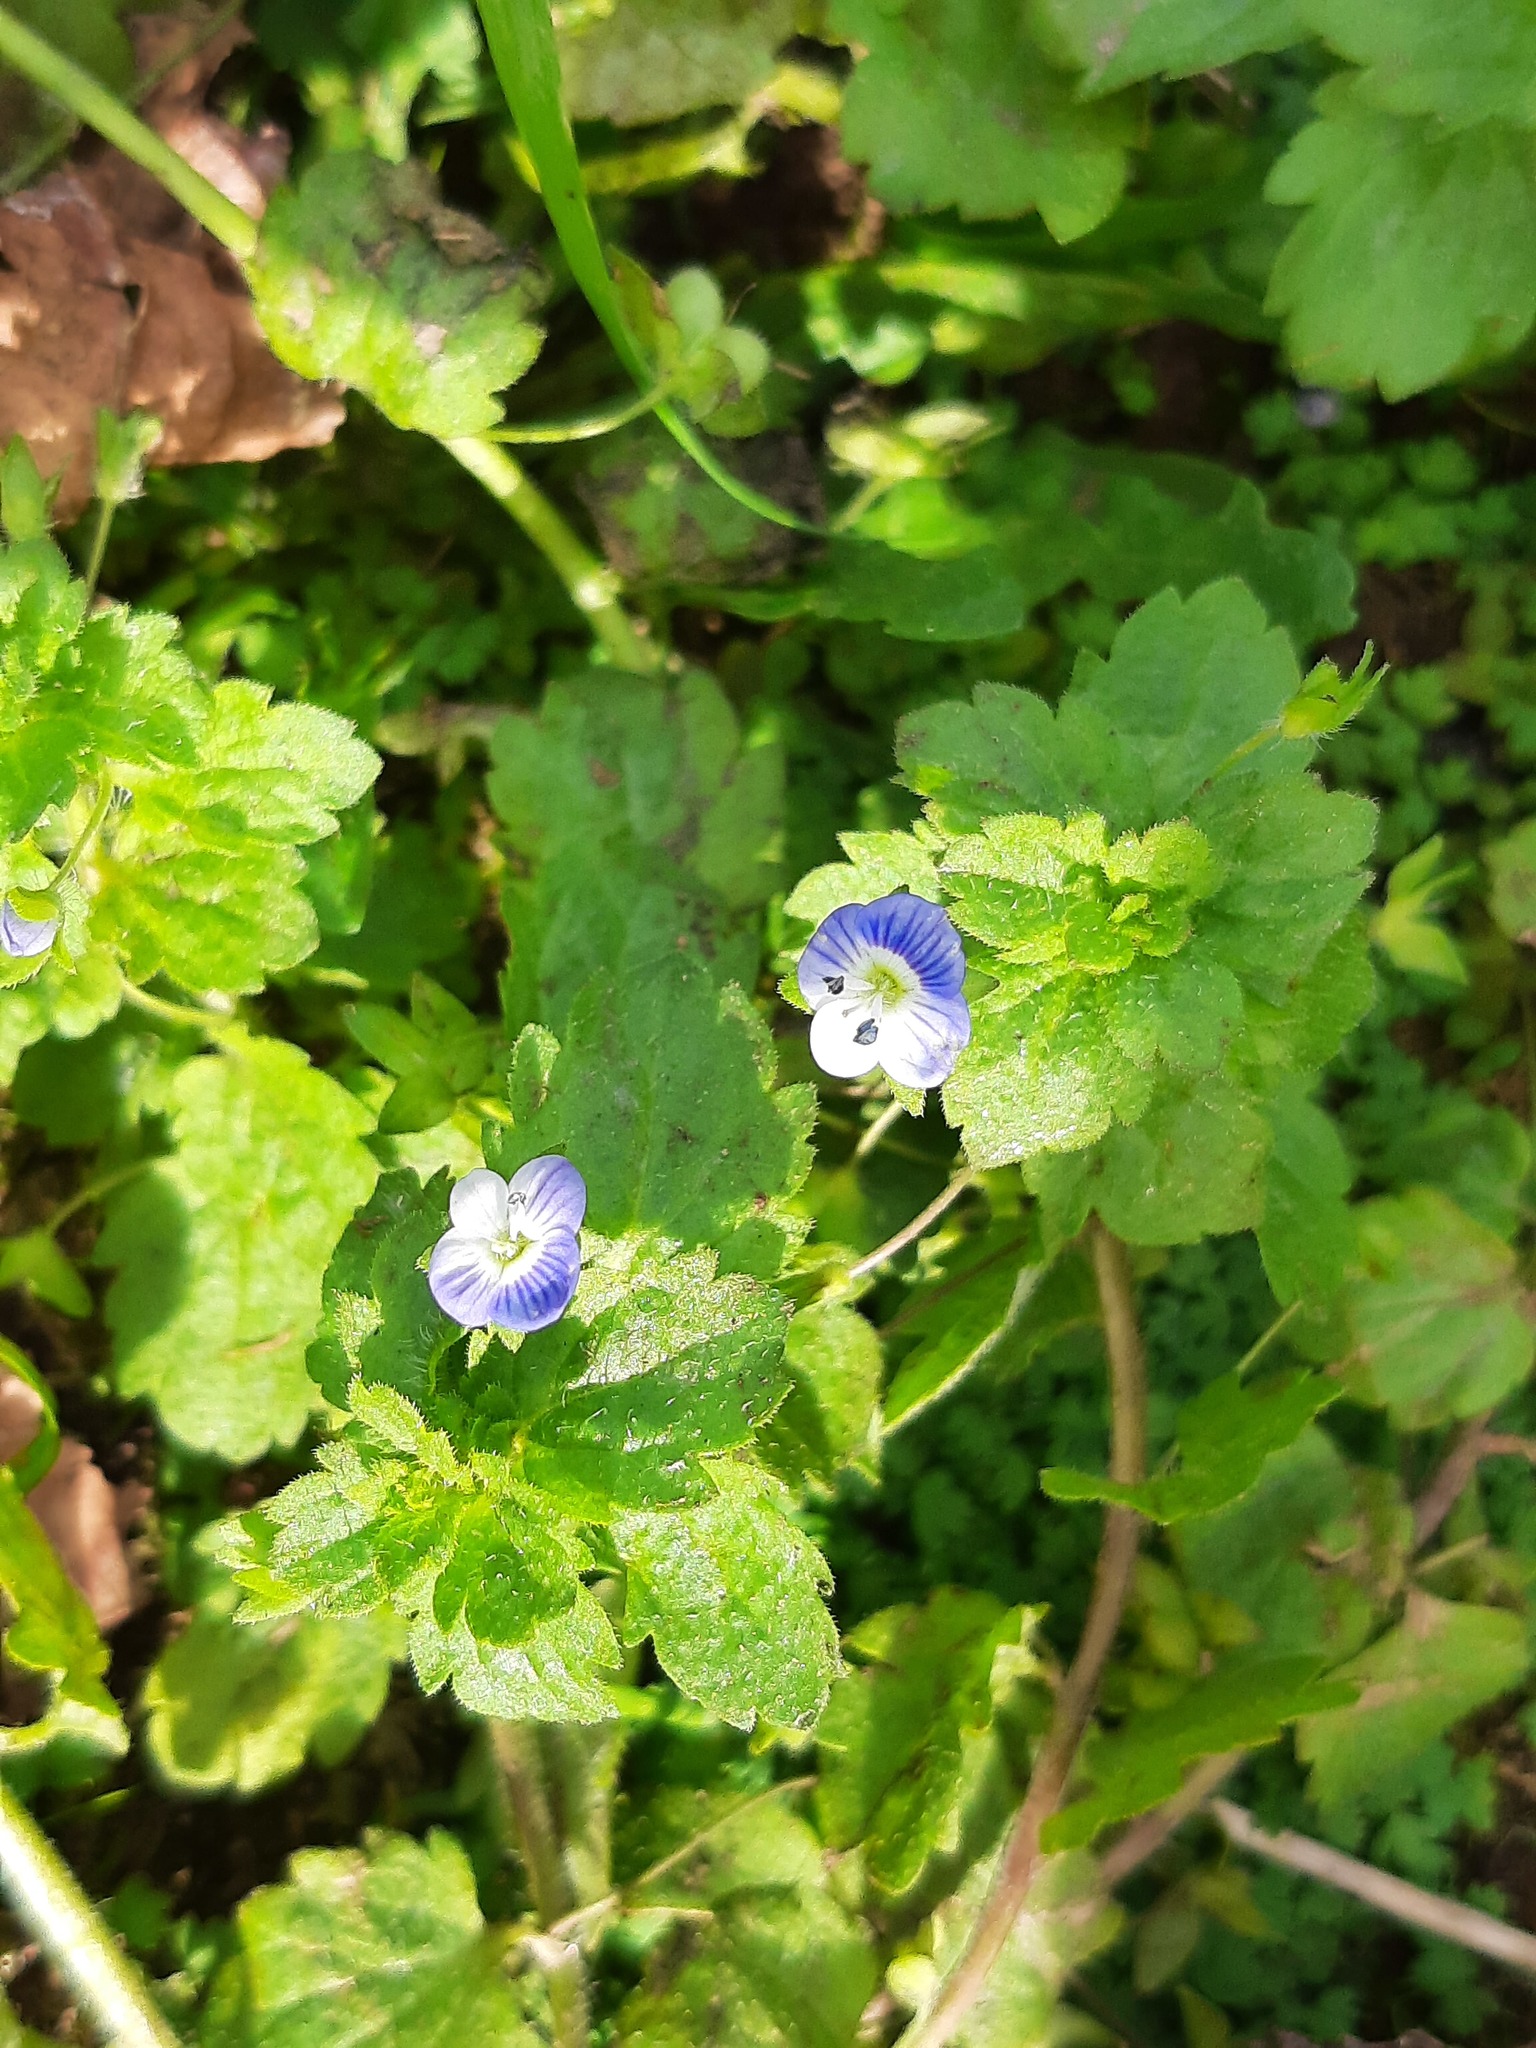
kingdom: Plantae
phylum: Tracheophyta
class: Magnoliopsida
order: Lamiales
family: Plantaginaceae
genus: Veronica
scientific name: Veronica persica
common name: Common field-speedwell
